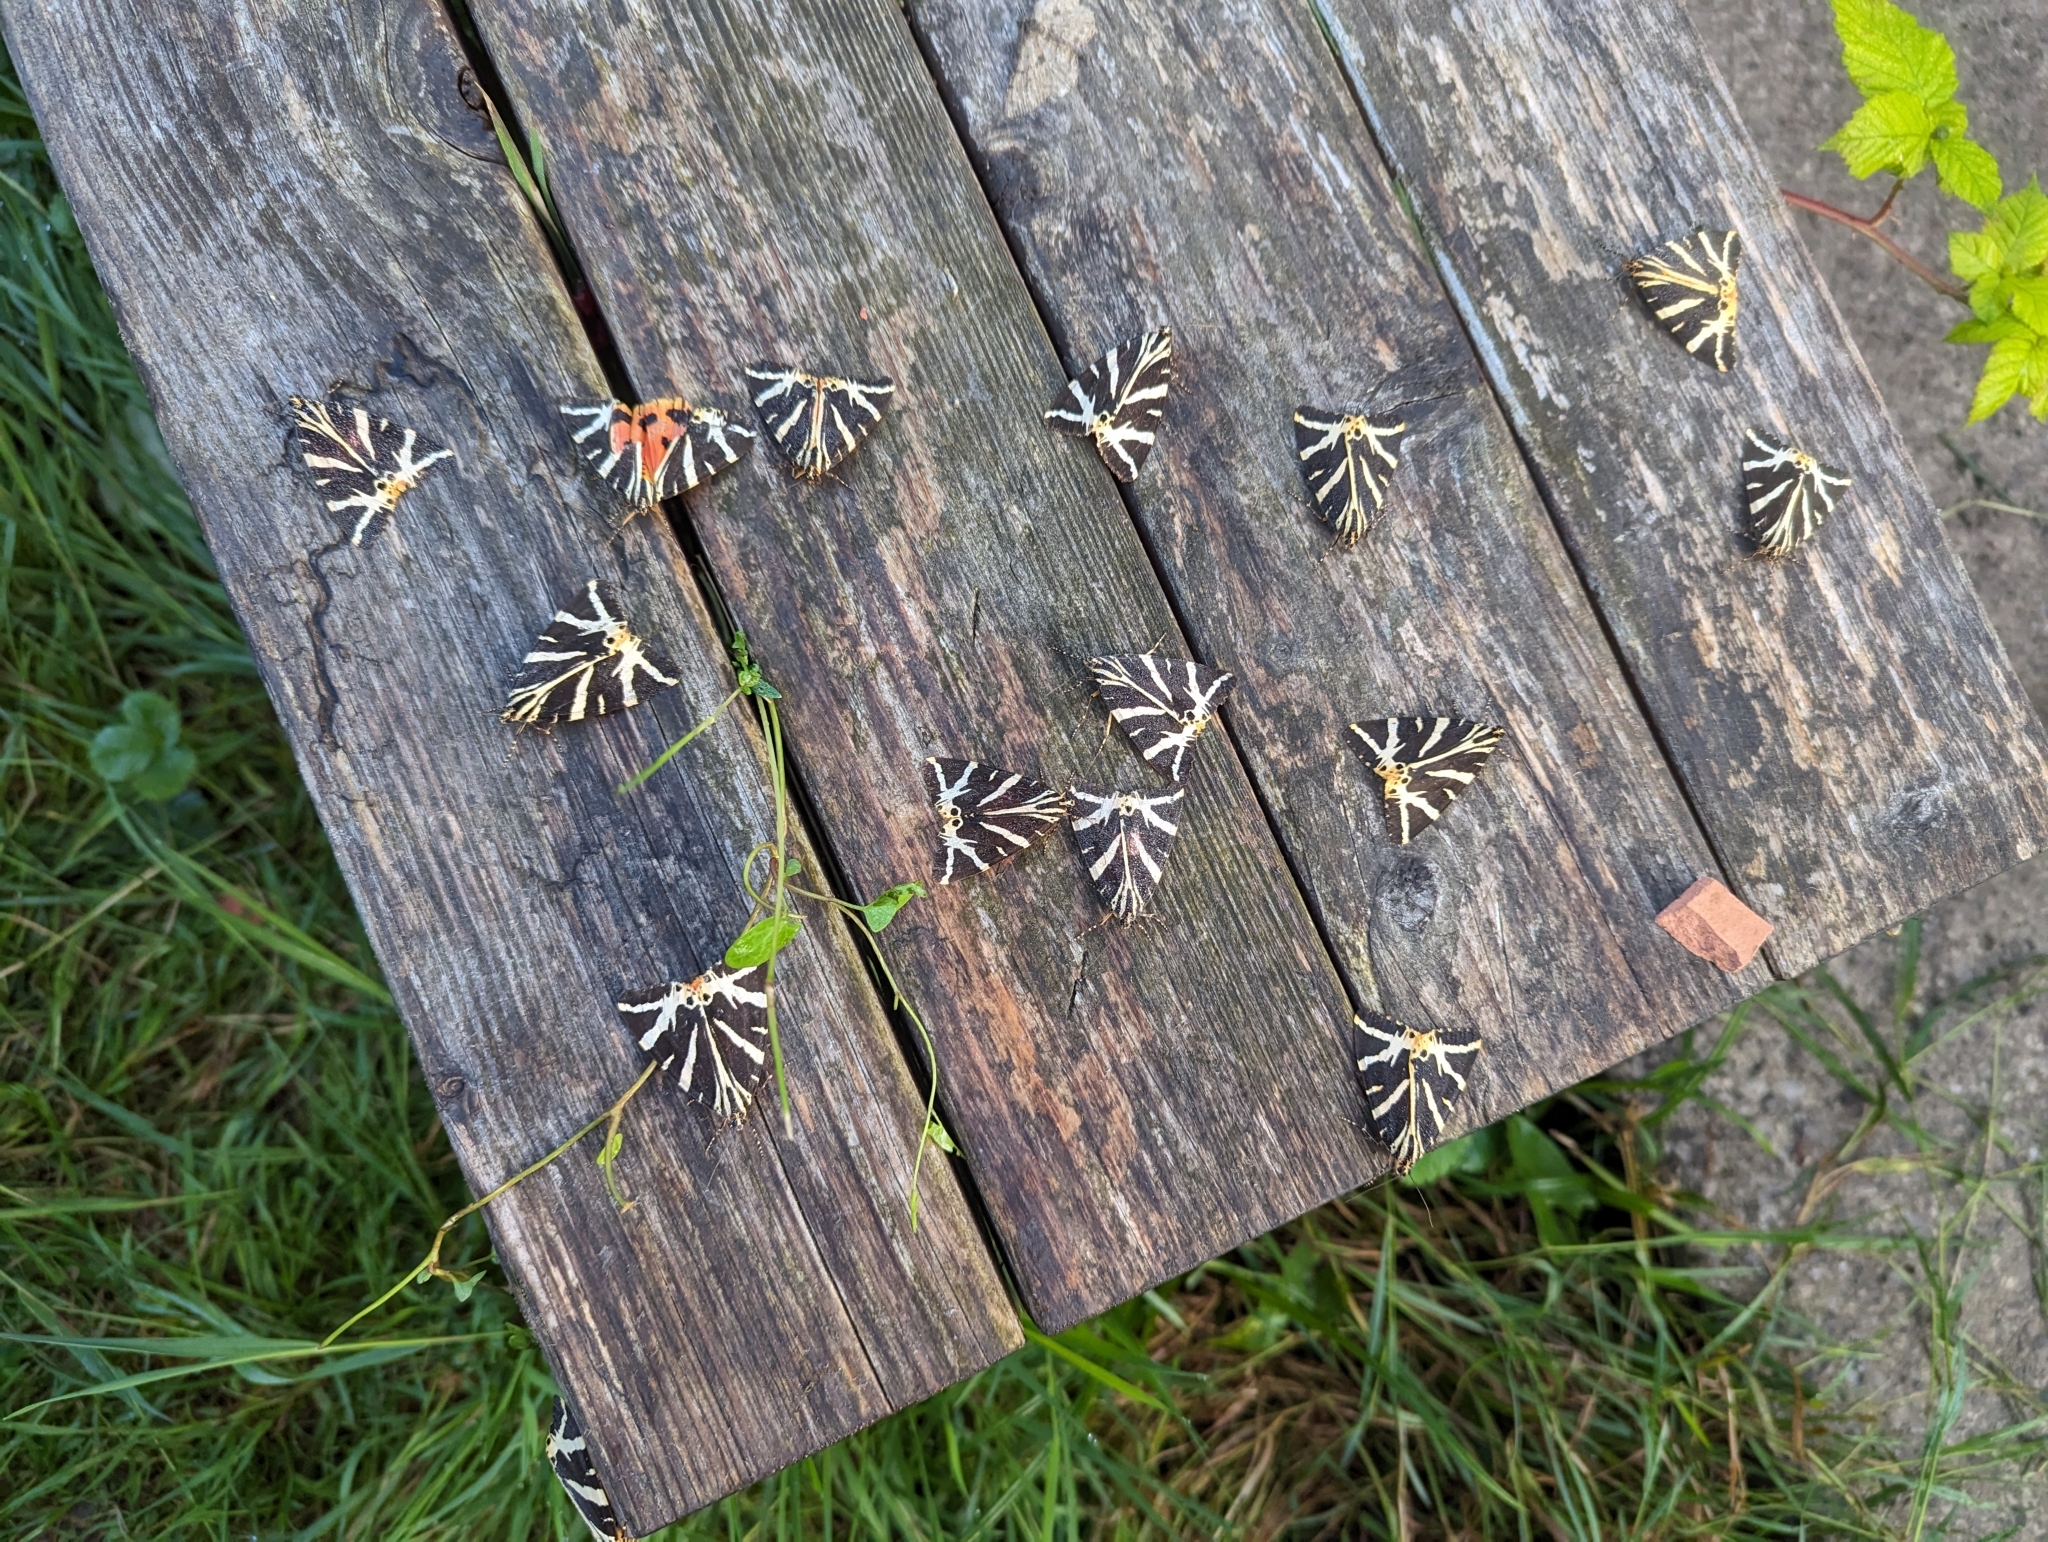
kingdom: Animalia
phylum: Arthropoda
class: Insecta
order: Lepidoptera
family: Erebidae
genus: Euplagia
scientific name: Euplagia quadripunctaria
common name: Jersey tiger
